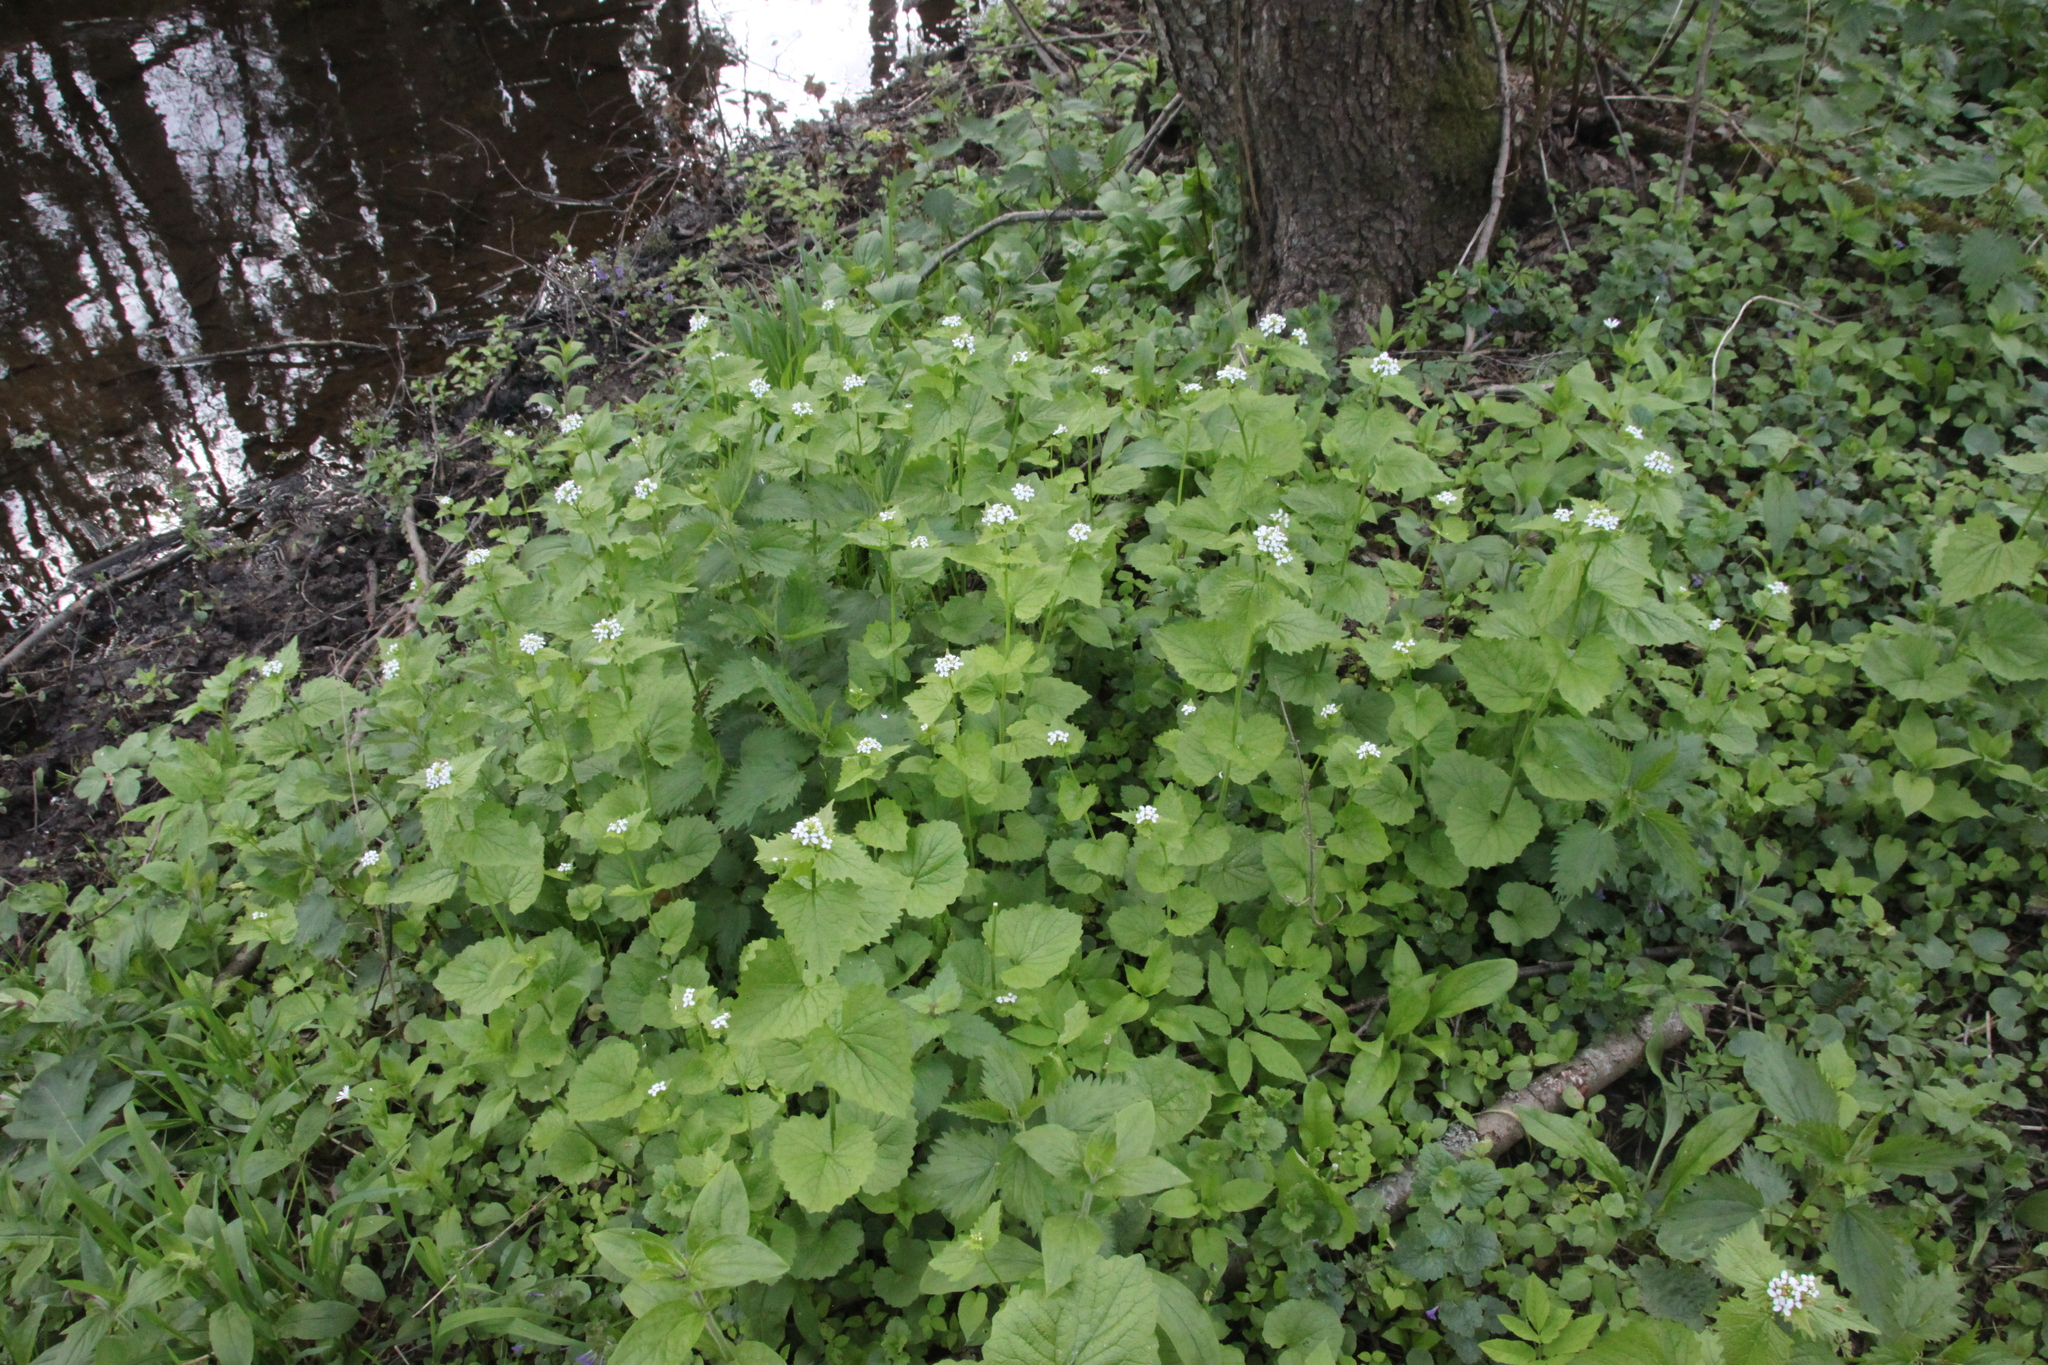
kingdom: Plantae
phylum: Tracheophyta
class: Magnoliopsida
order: Brassicales
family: Brassicaceae
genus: Alliaria
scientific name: Alliaria petiolata
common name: Garlic mustard
